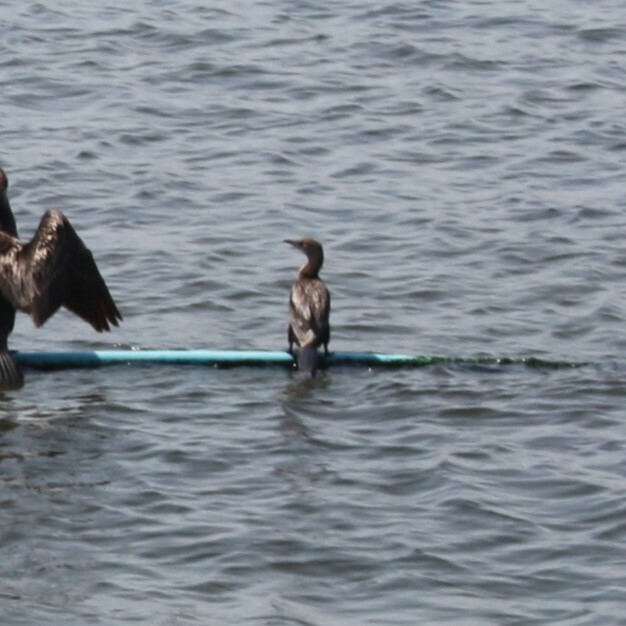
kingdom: Animalia
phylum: Chordata
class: Aves
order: Suliformes
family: Phalacrocoracidae
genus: Microcarbo
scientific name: Microcarbo pygmaeus
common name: Pygmy cormorant
